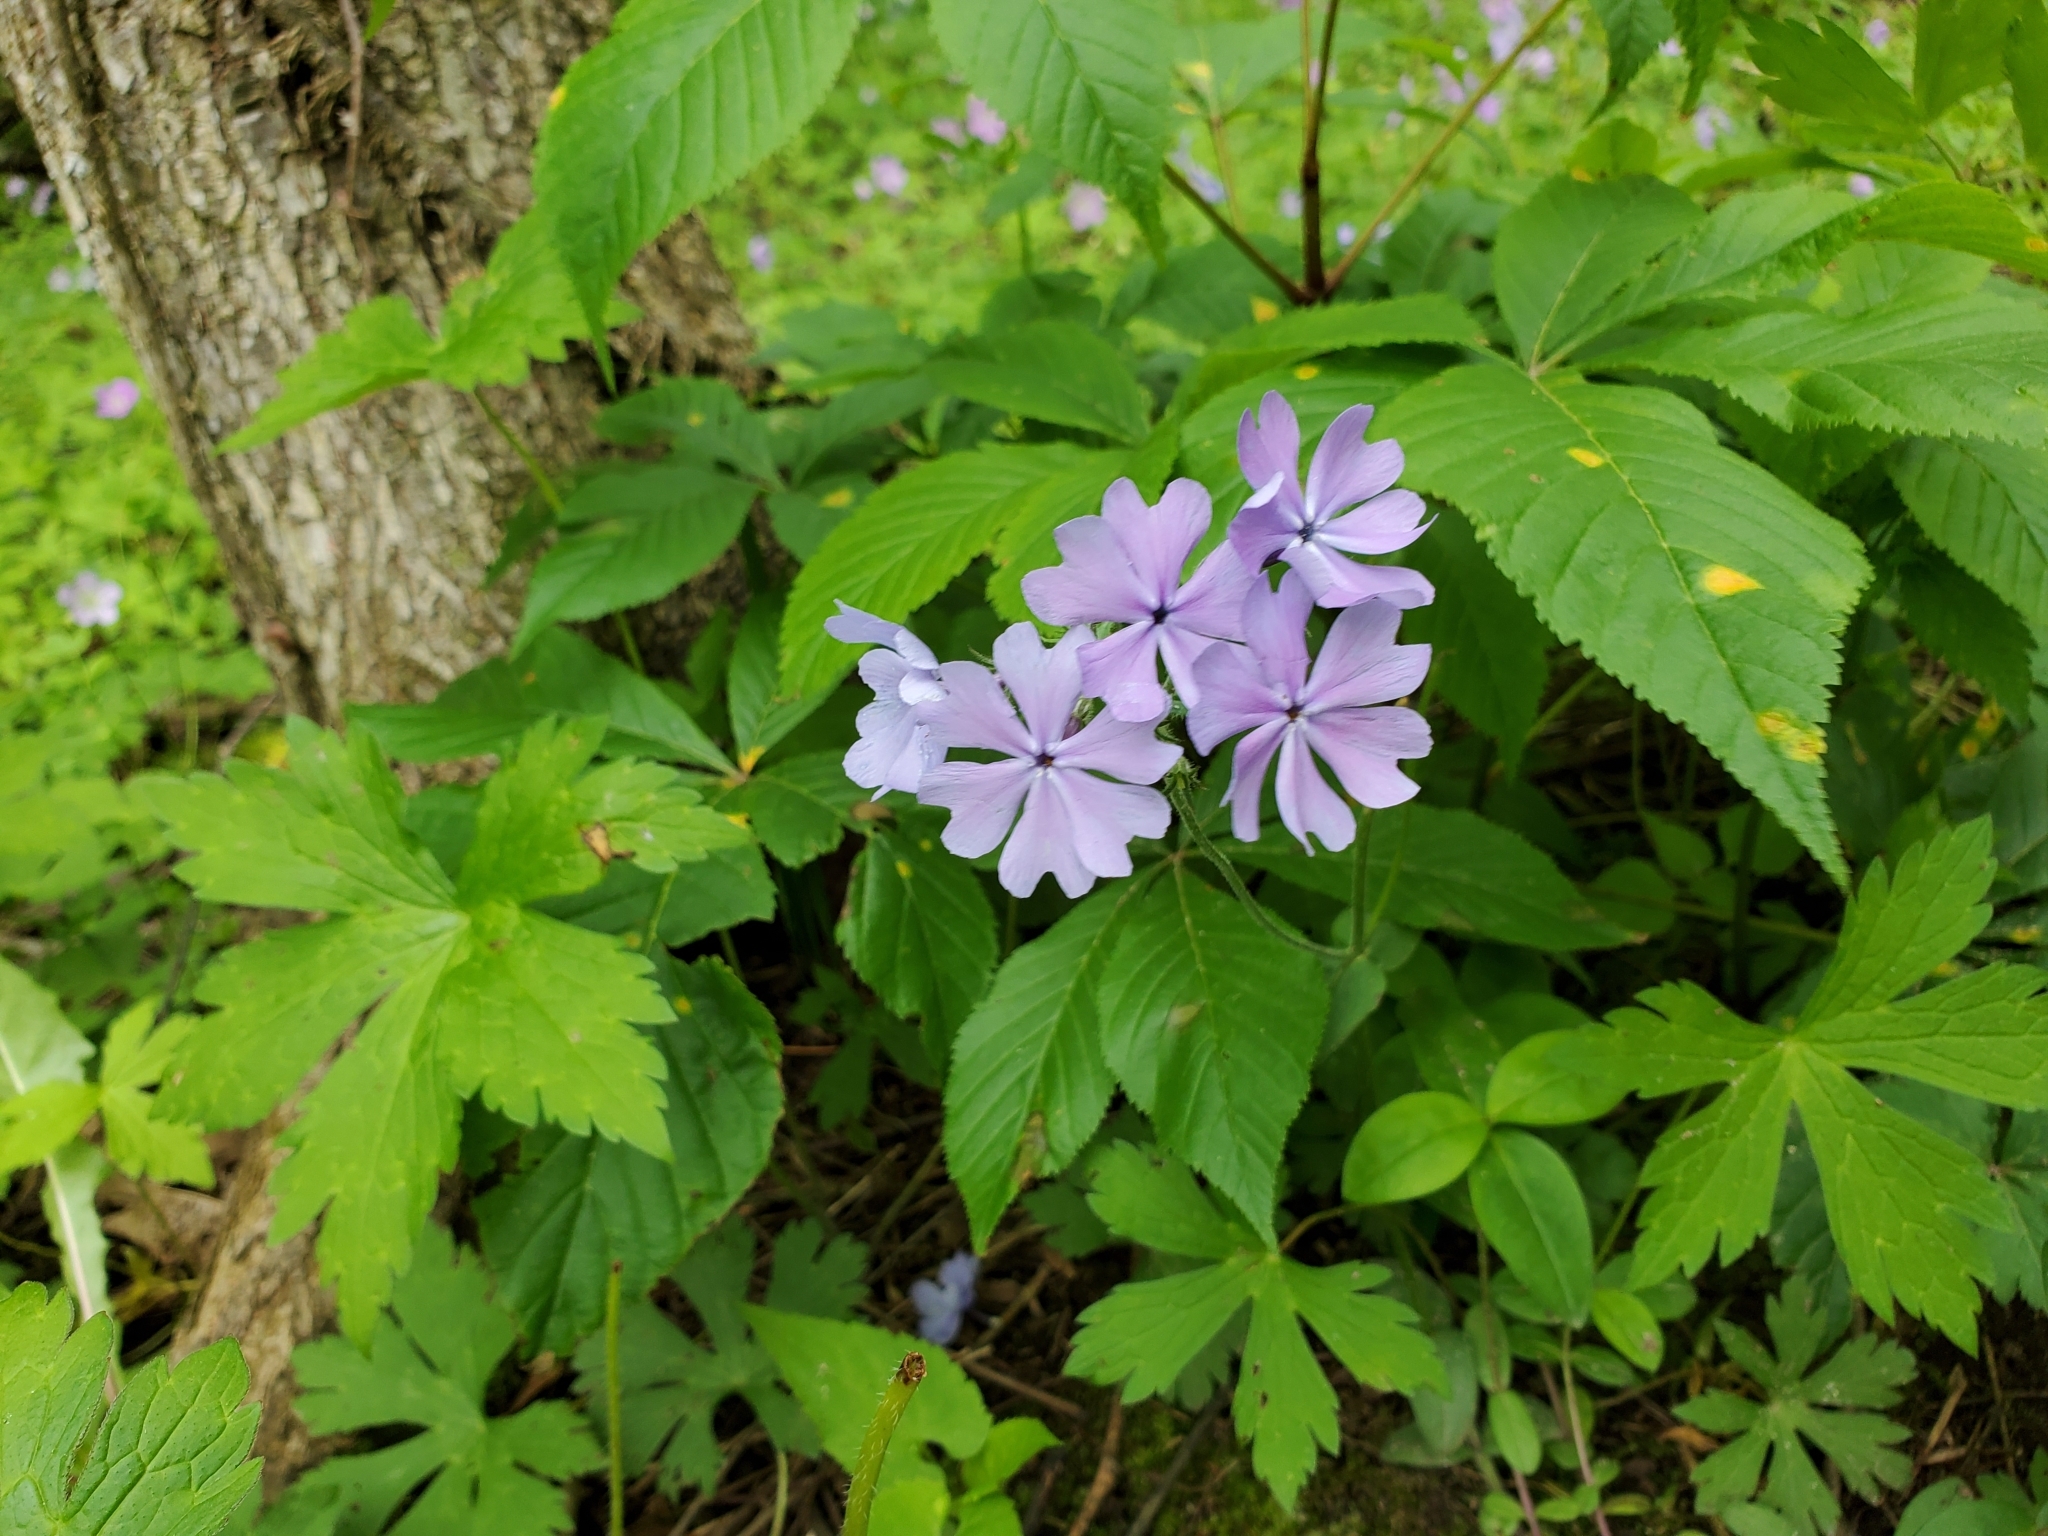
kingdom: Plantae
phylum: Tracheophyta
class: Magnoliopsida
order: Ericales
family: Polemoniaceae
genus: Phlox
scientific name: Phlox divaricata
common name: Blue phlox
